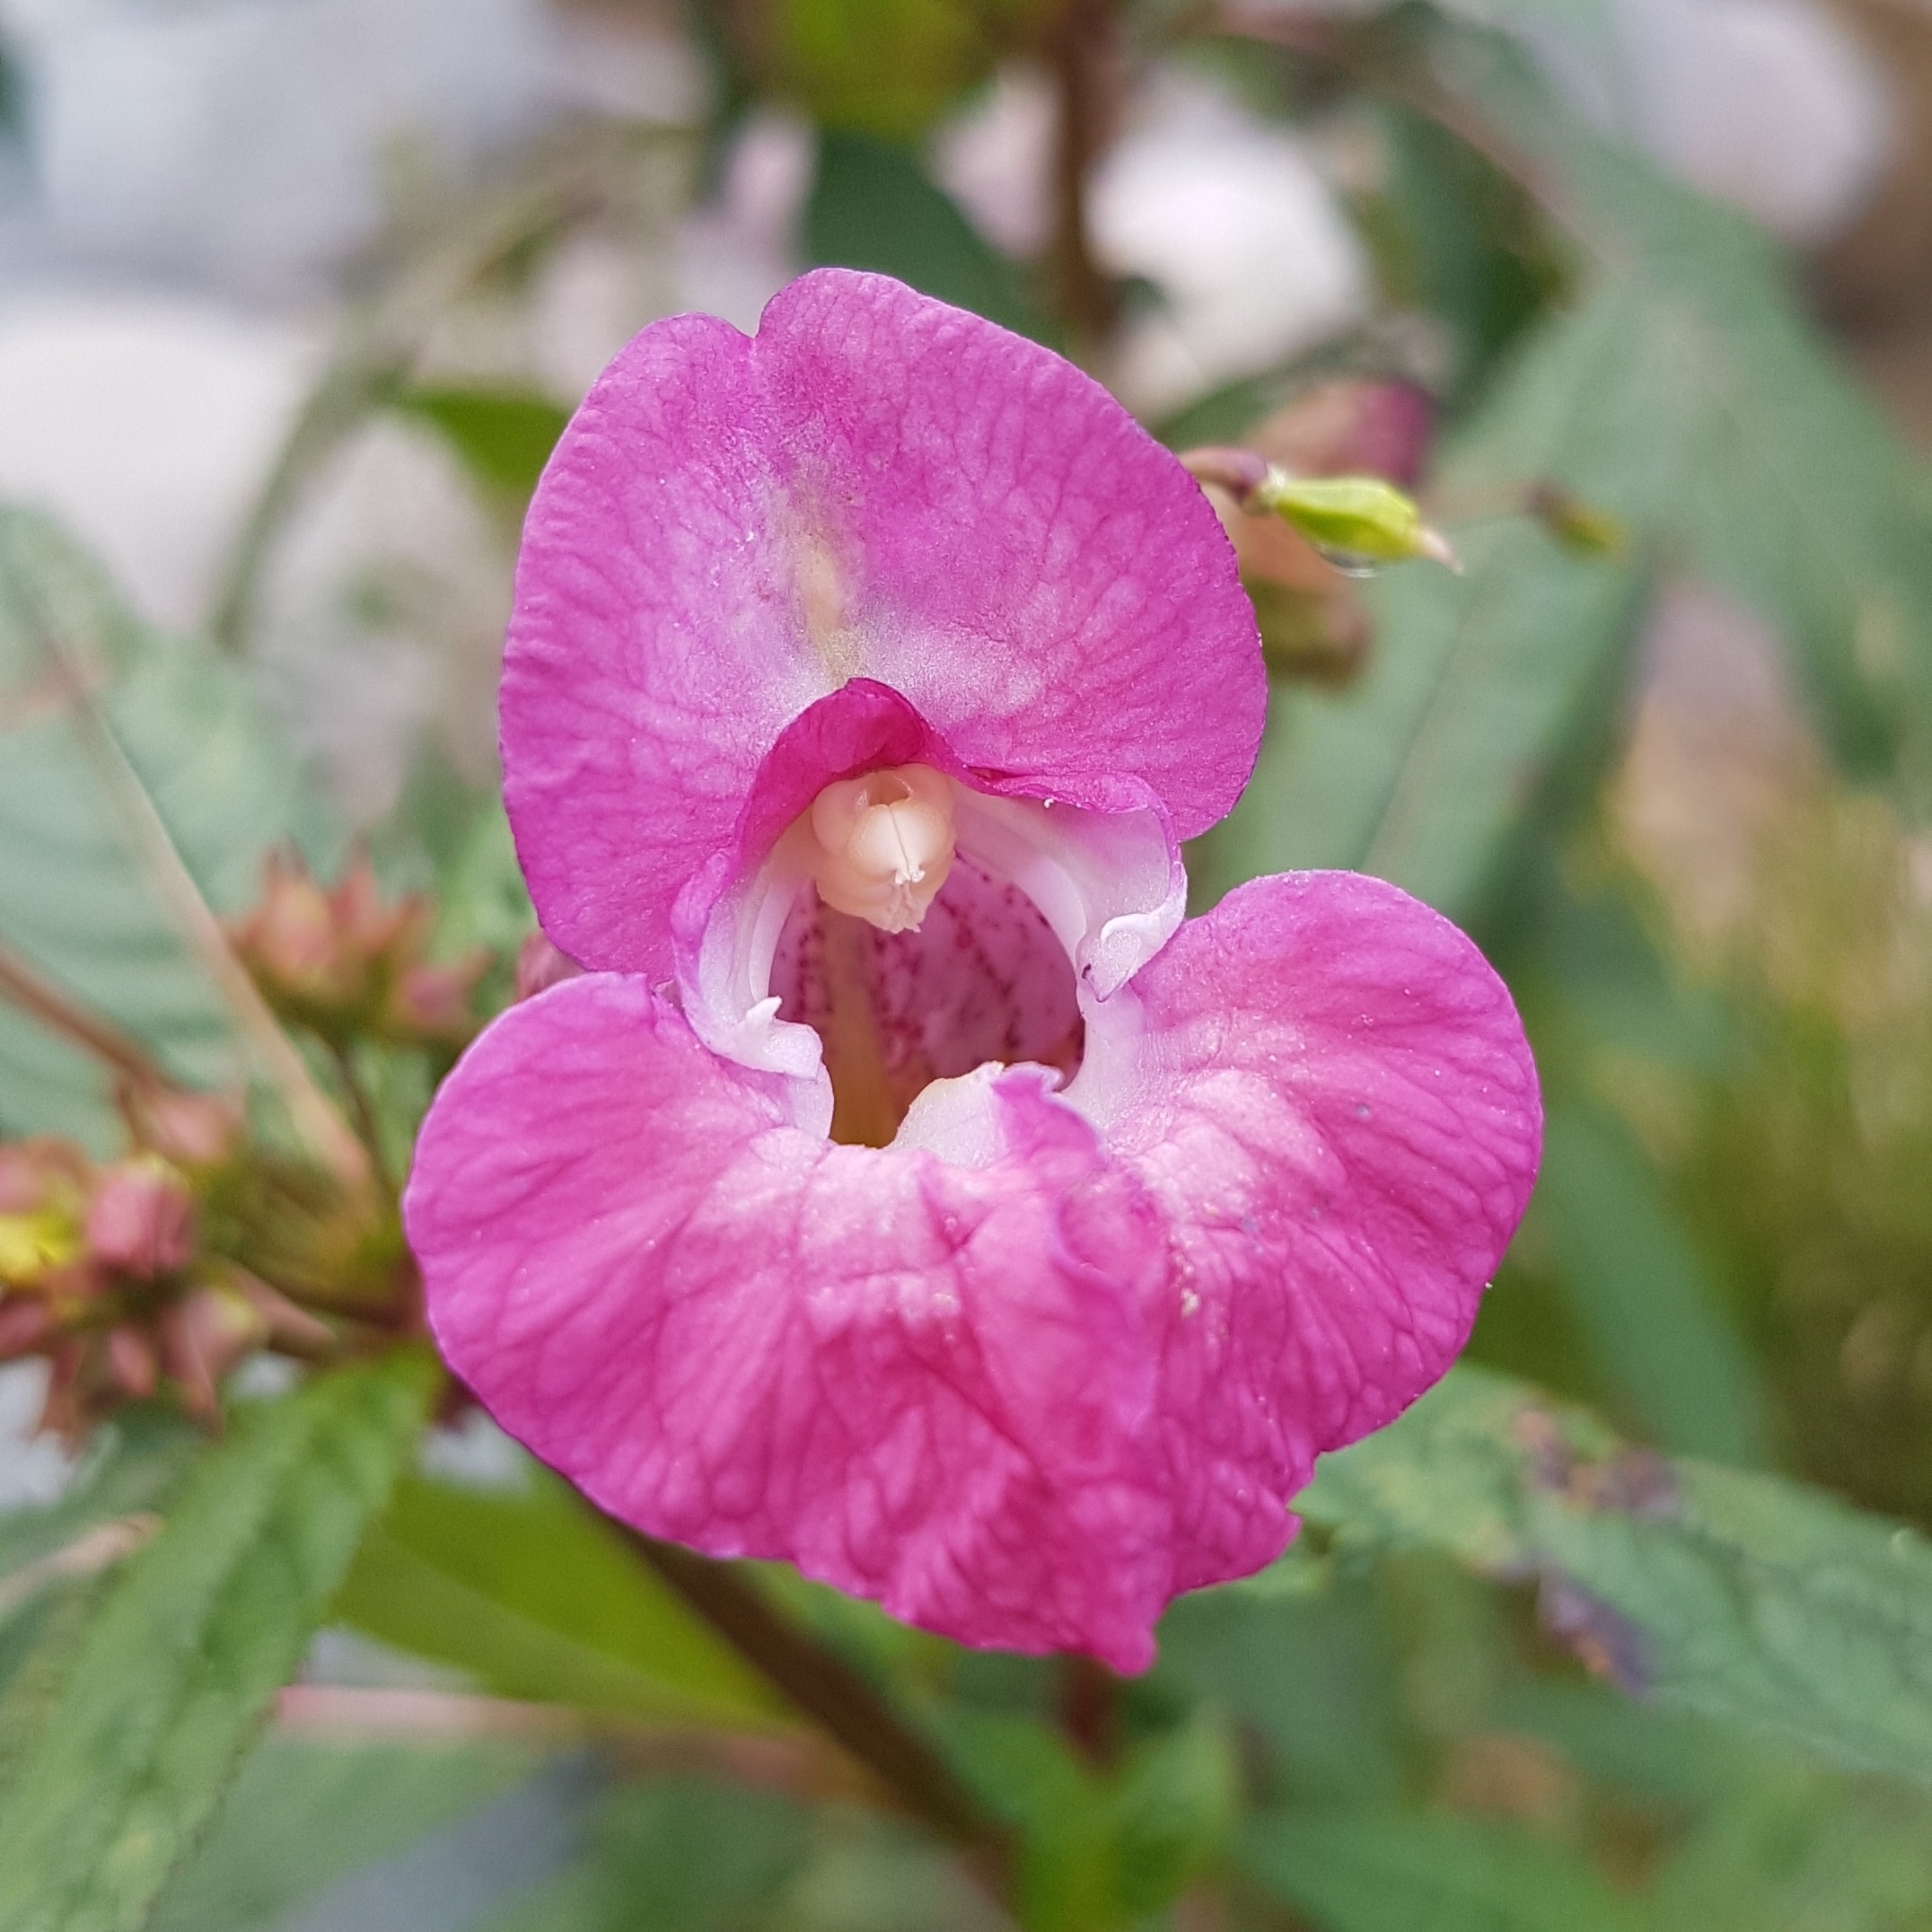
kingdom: Plantae
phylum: Tracheophyta
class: Magnoliopsida
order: Ericales
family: Balsaminaceae
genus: Impatiens
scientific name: Impatiens glandulifera
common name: Himalayan balsam
